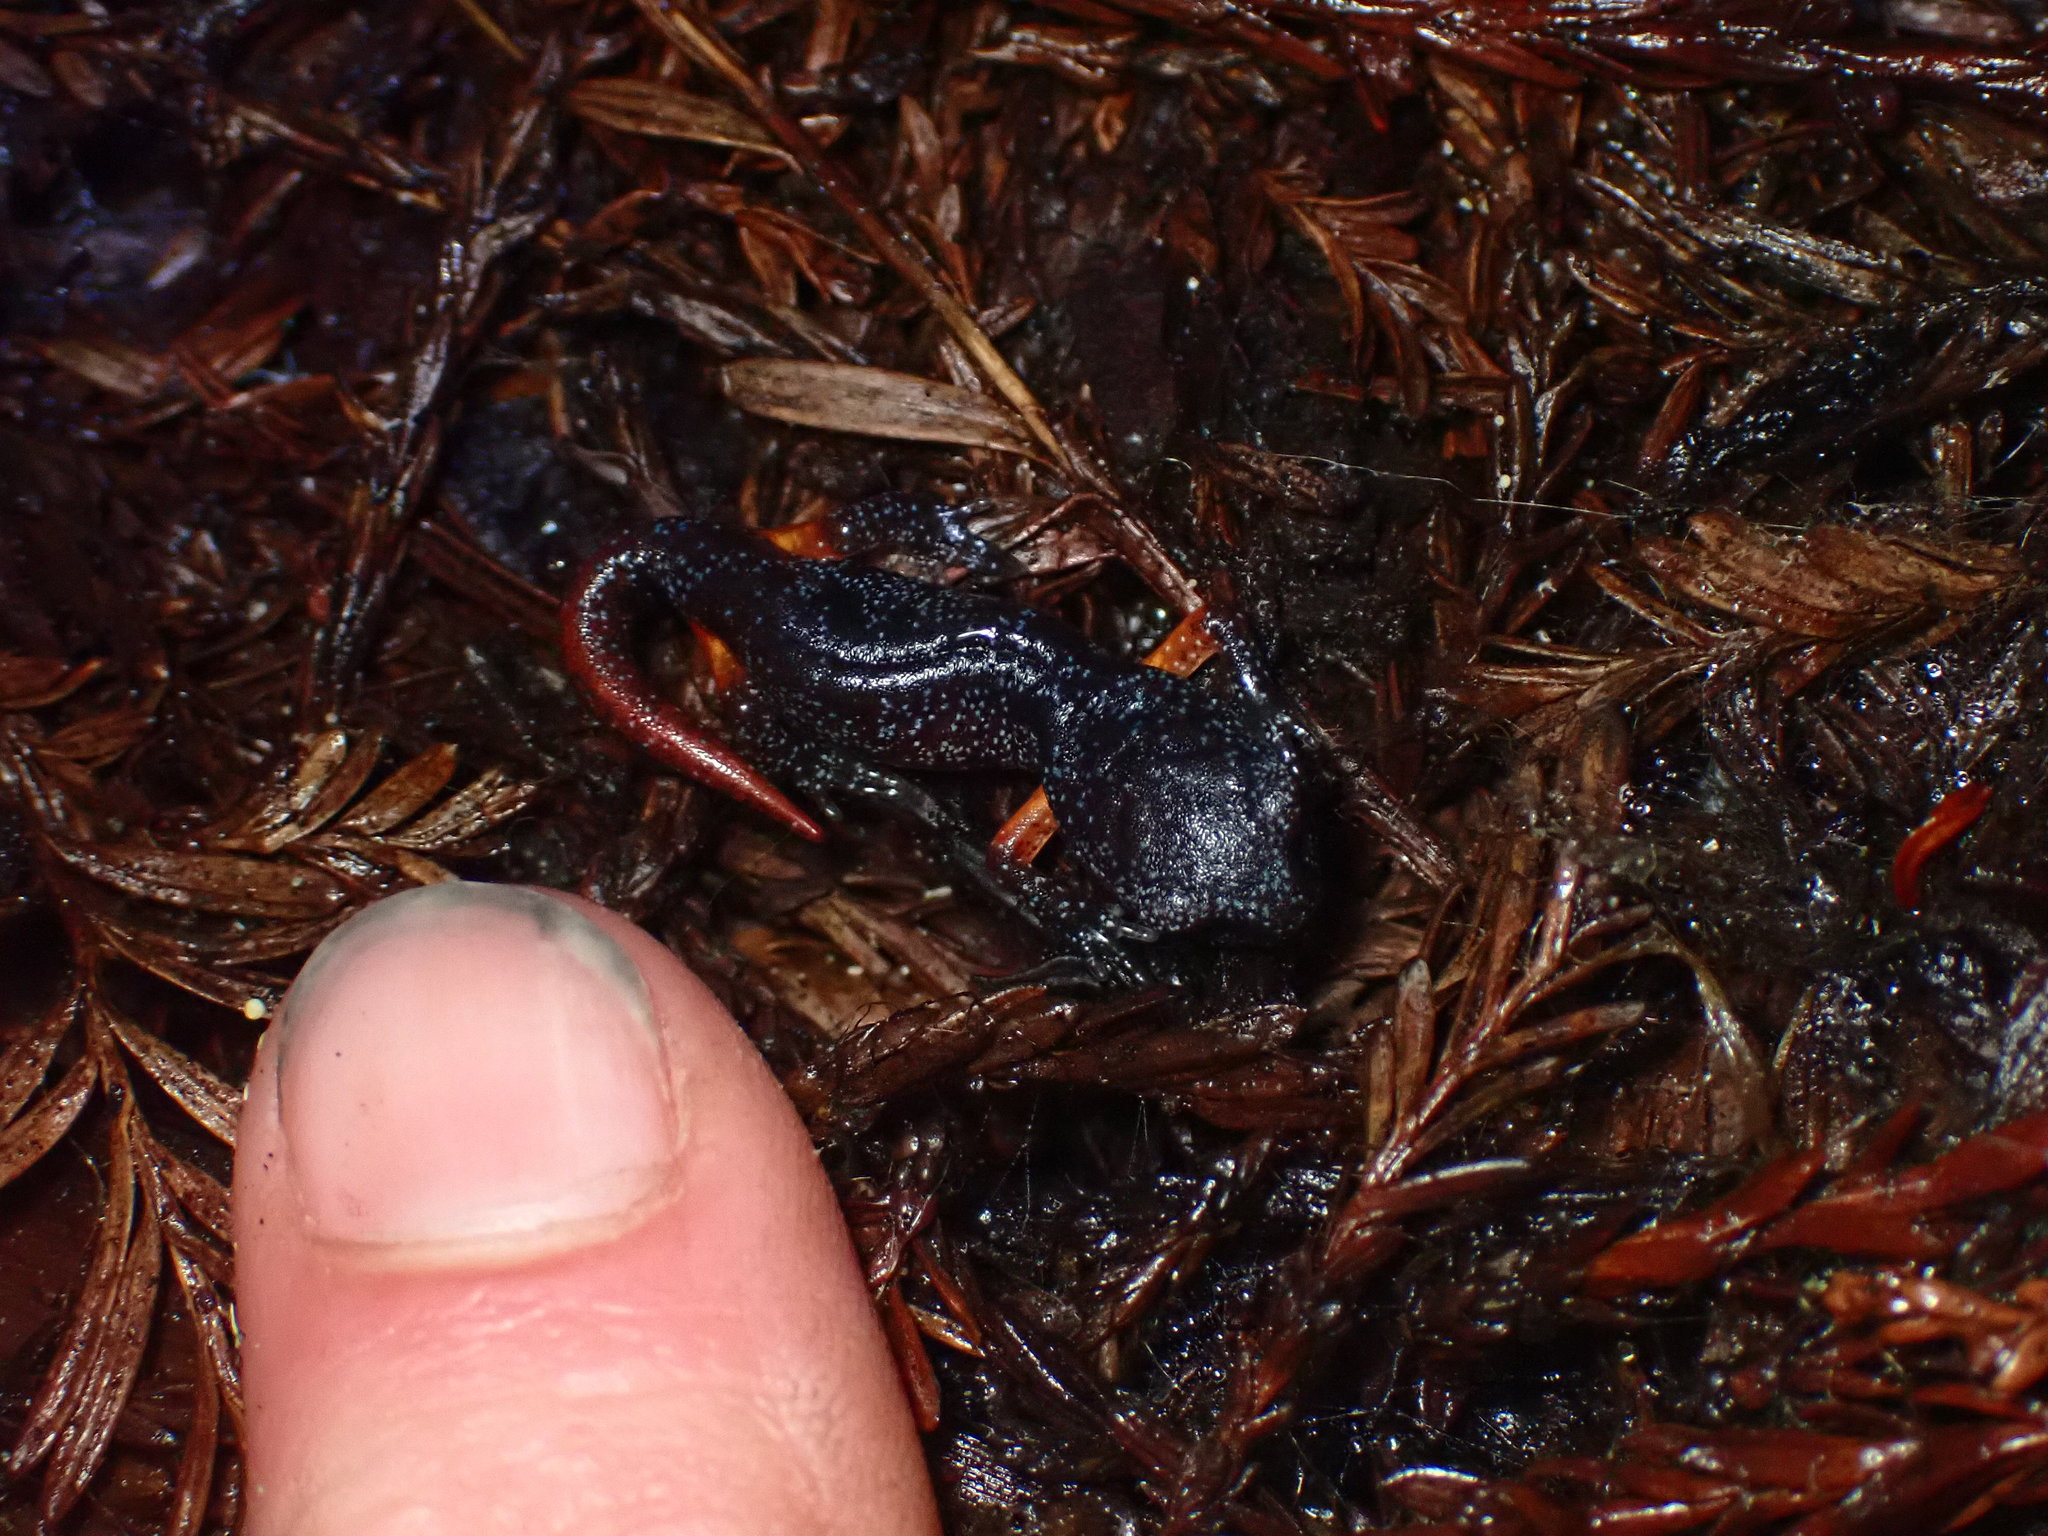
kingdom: Animalia
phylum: Chordata
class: Amphibia
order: Caudata
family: Plethodontidae
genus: Ensatina
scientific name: Ensatina eschscholtzii
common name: Ensatina
